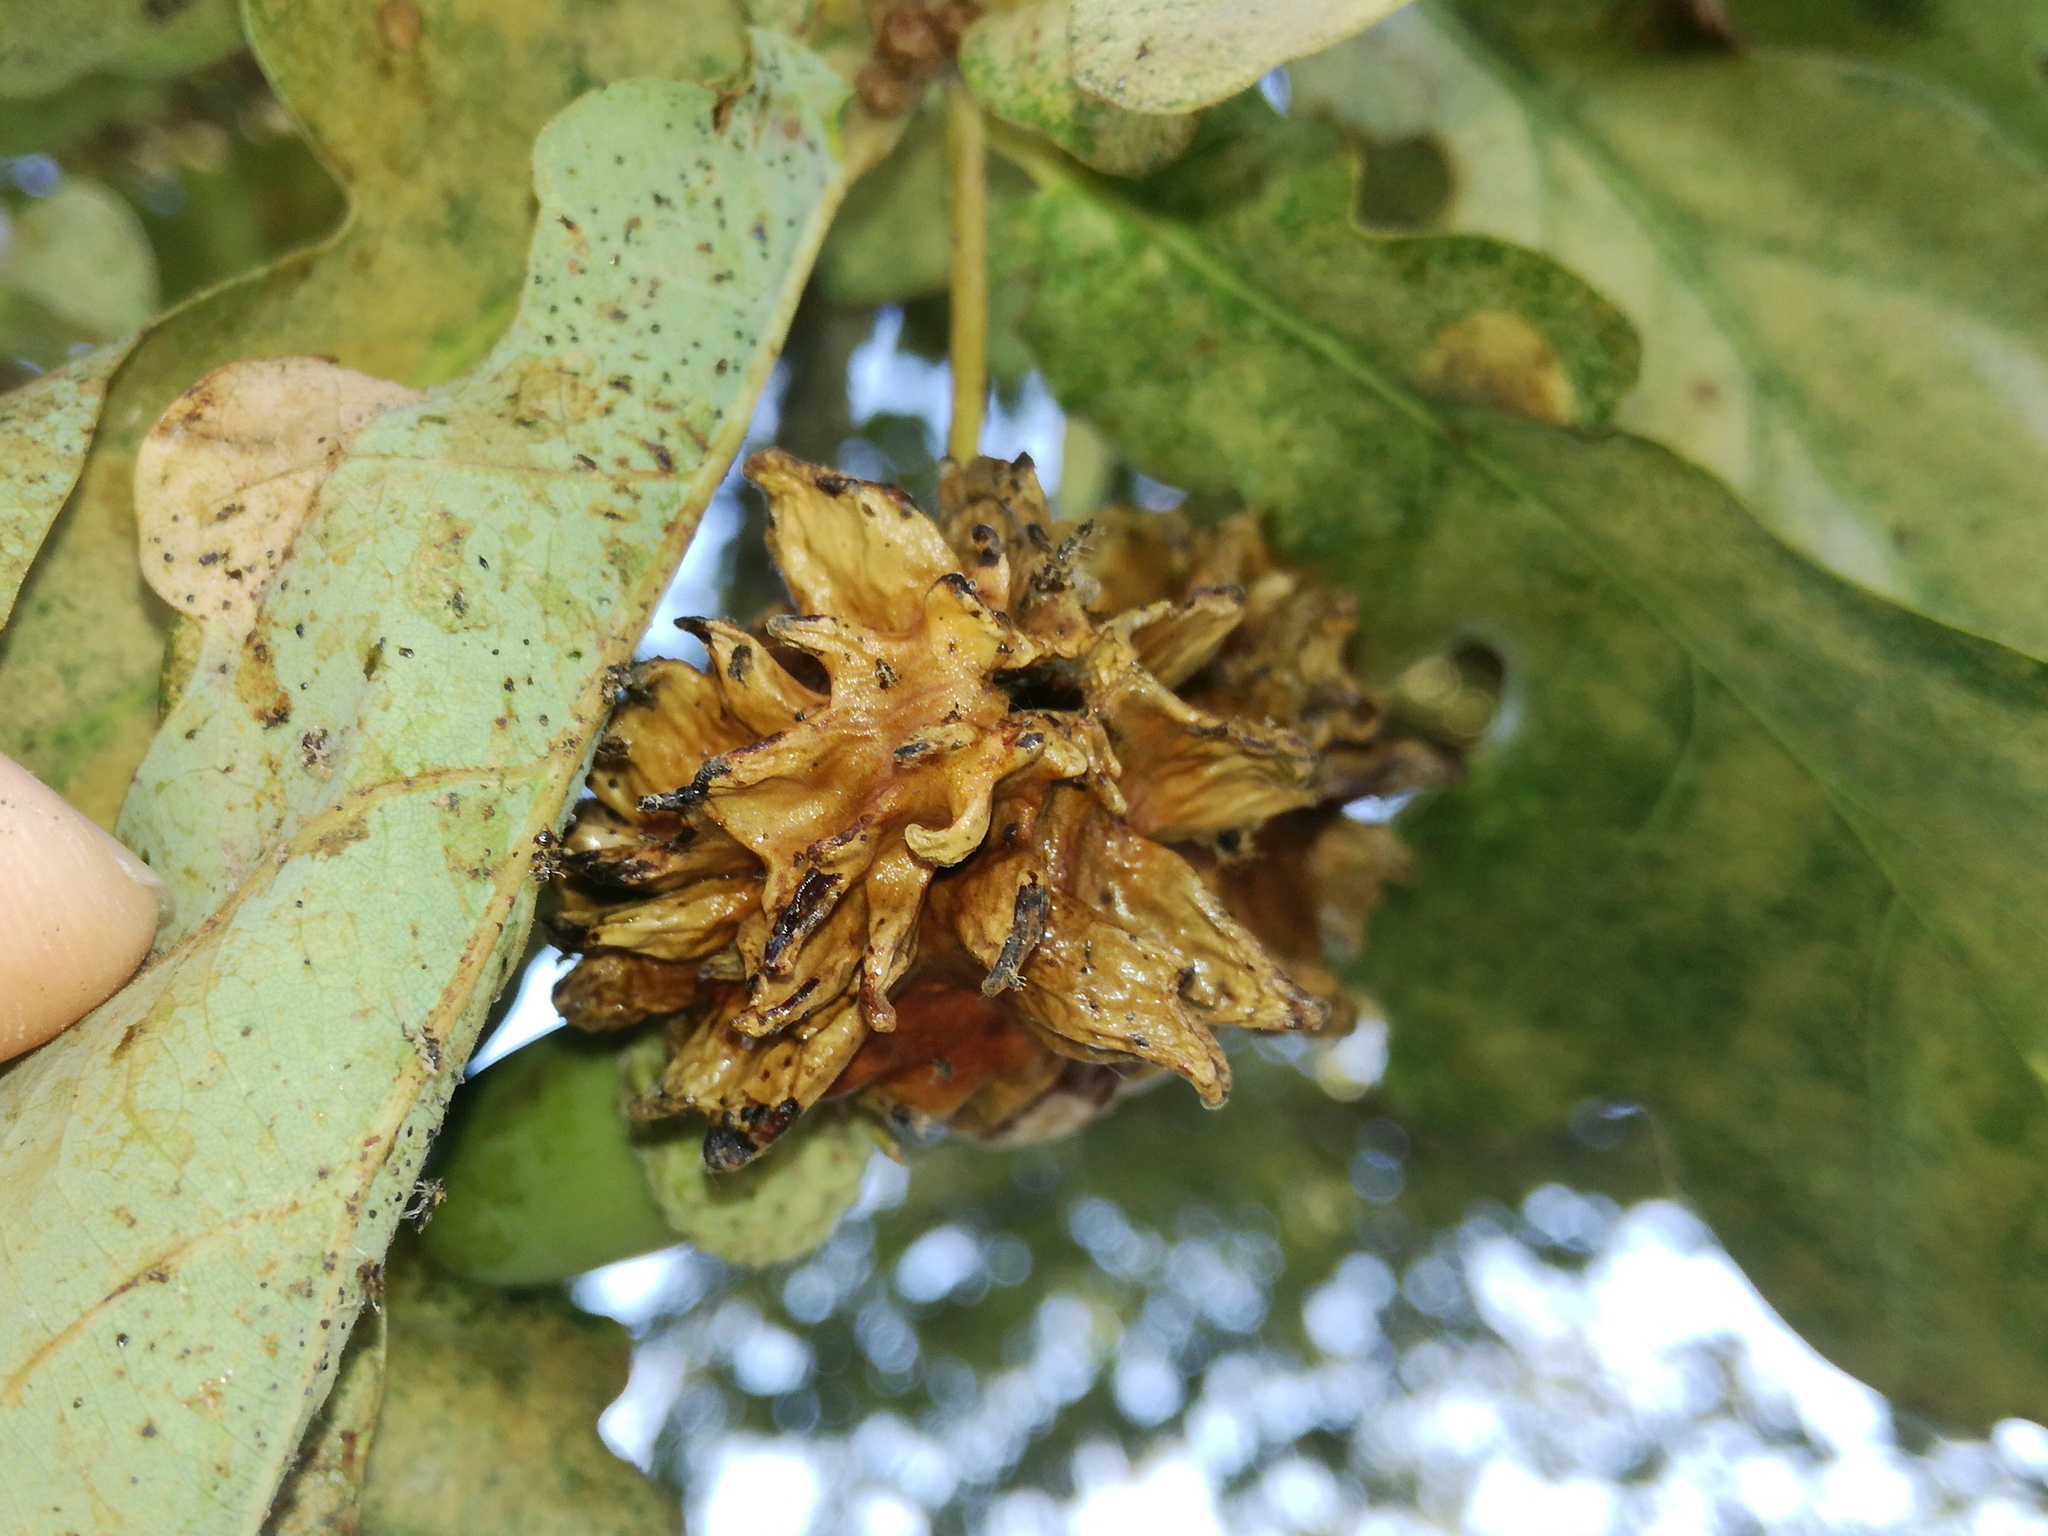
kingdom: Animalia
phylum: Arthropoda
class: Insecta
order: Hymenoptera
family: Cynipidae
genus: Andricus
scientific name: Andricus quercuscalicis
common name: Knopper gall
